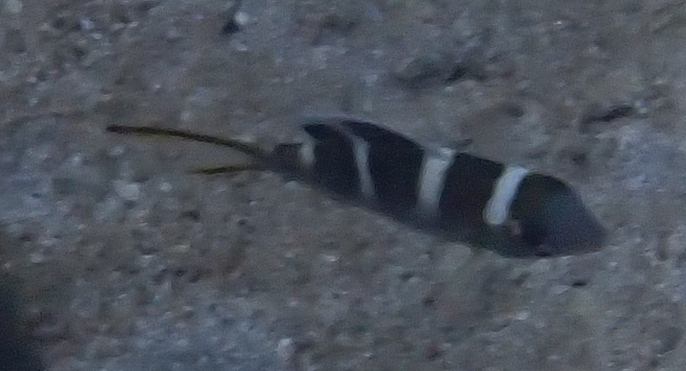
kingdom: Animalia
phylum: Chordata
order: Perciformes
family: Lethrinidae
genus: Monotaxis
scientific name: Monotaxis grandoculis
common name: Bigeye emperor
